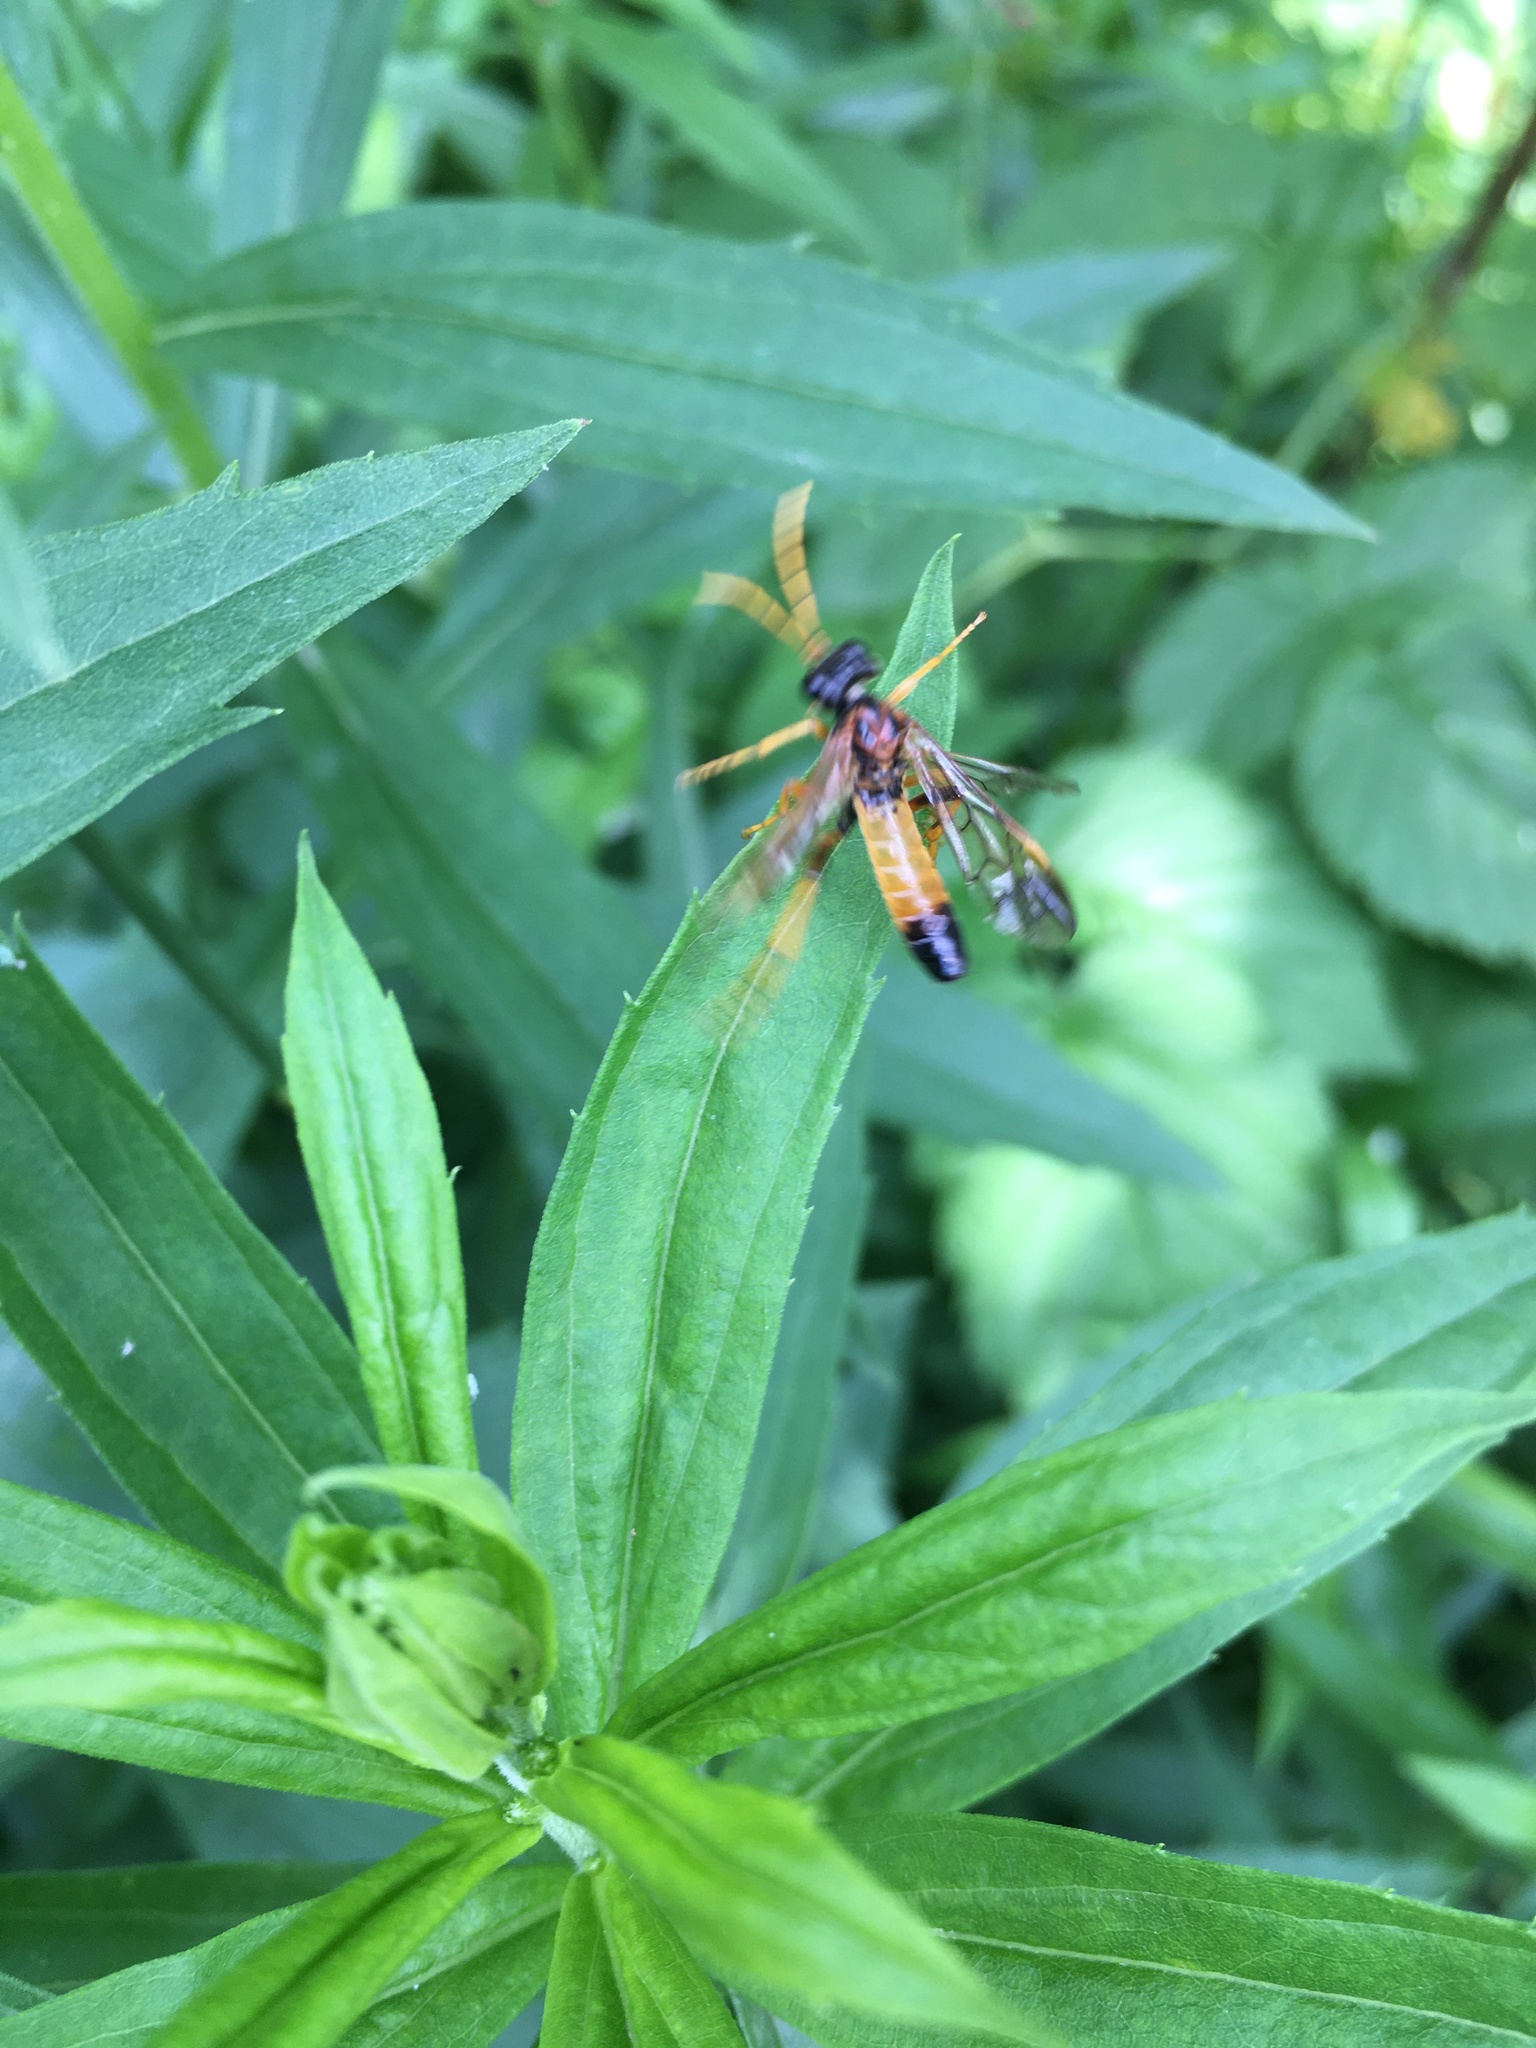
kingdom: Animalia
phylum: Arthropoda
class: Insecta
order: Hymenoptera
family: Tenthredinidae
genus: Tenthredo
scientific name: Tenthredo campestris
